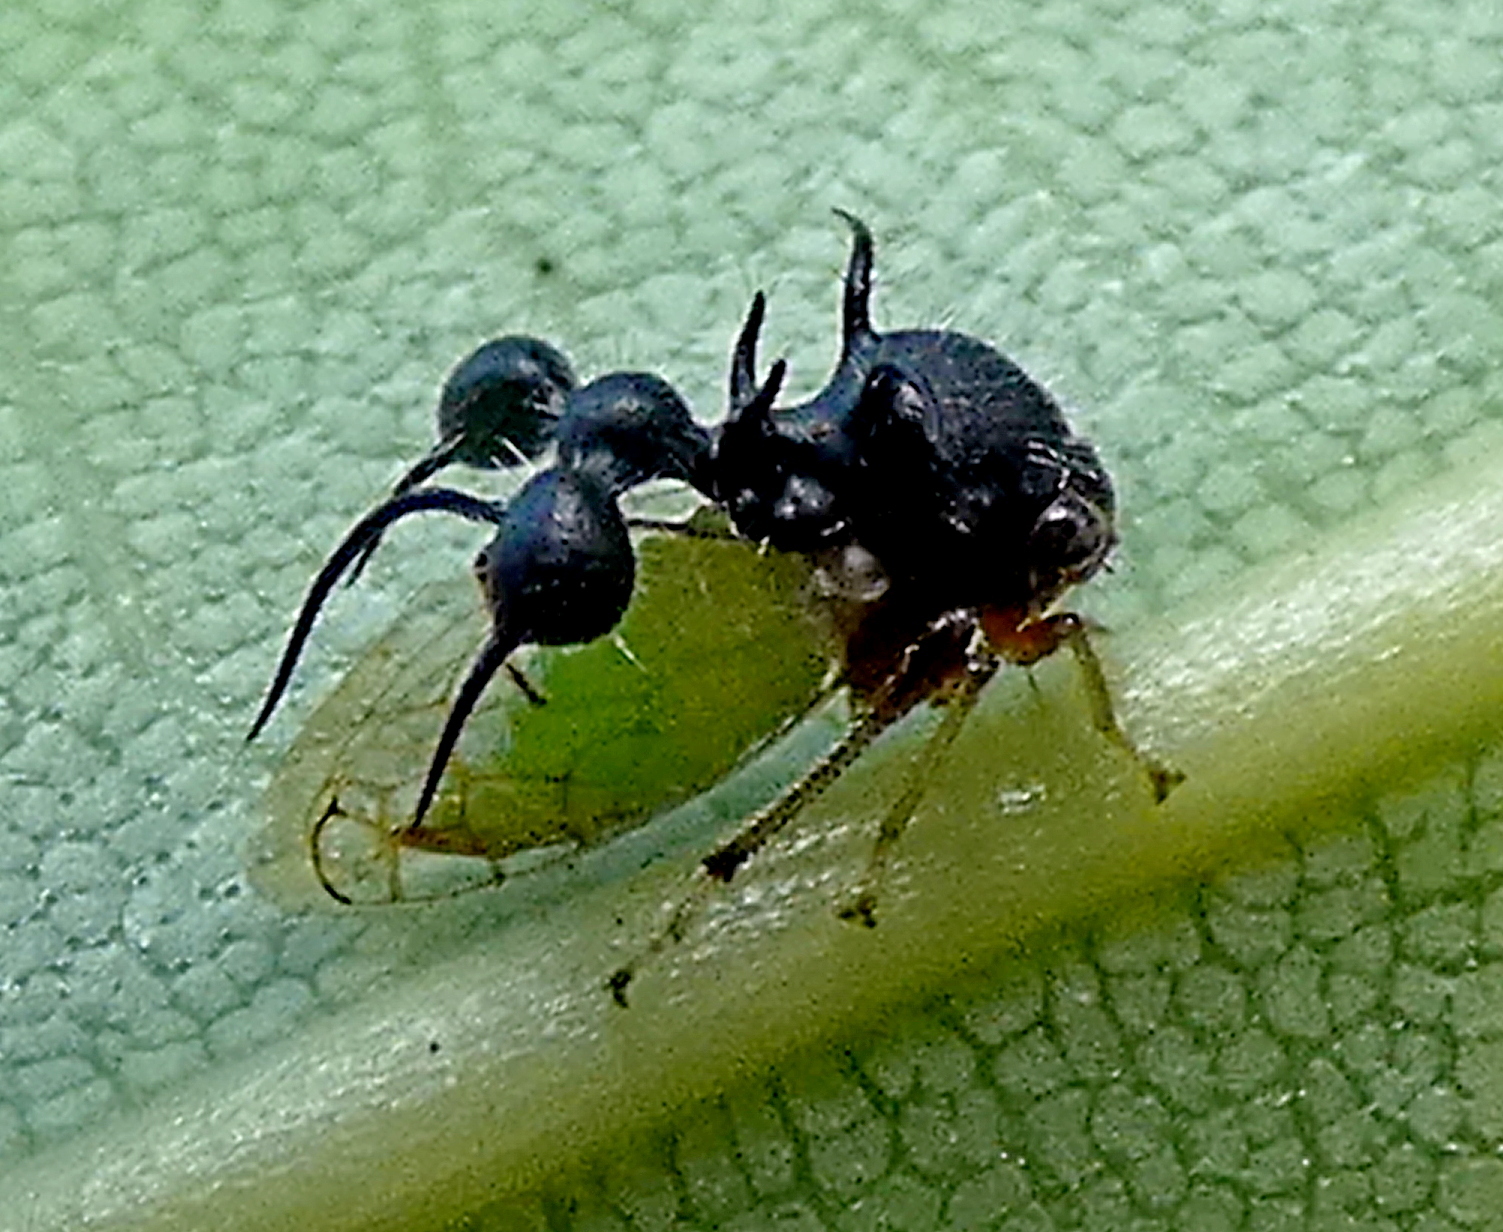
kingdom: Animalia
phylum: Arthropoda
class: Insecta
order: Hemiptera
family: Membracidae
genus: Cyphonia
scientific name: Cyphonia clavata
